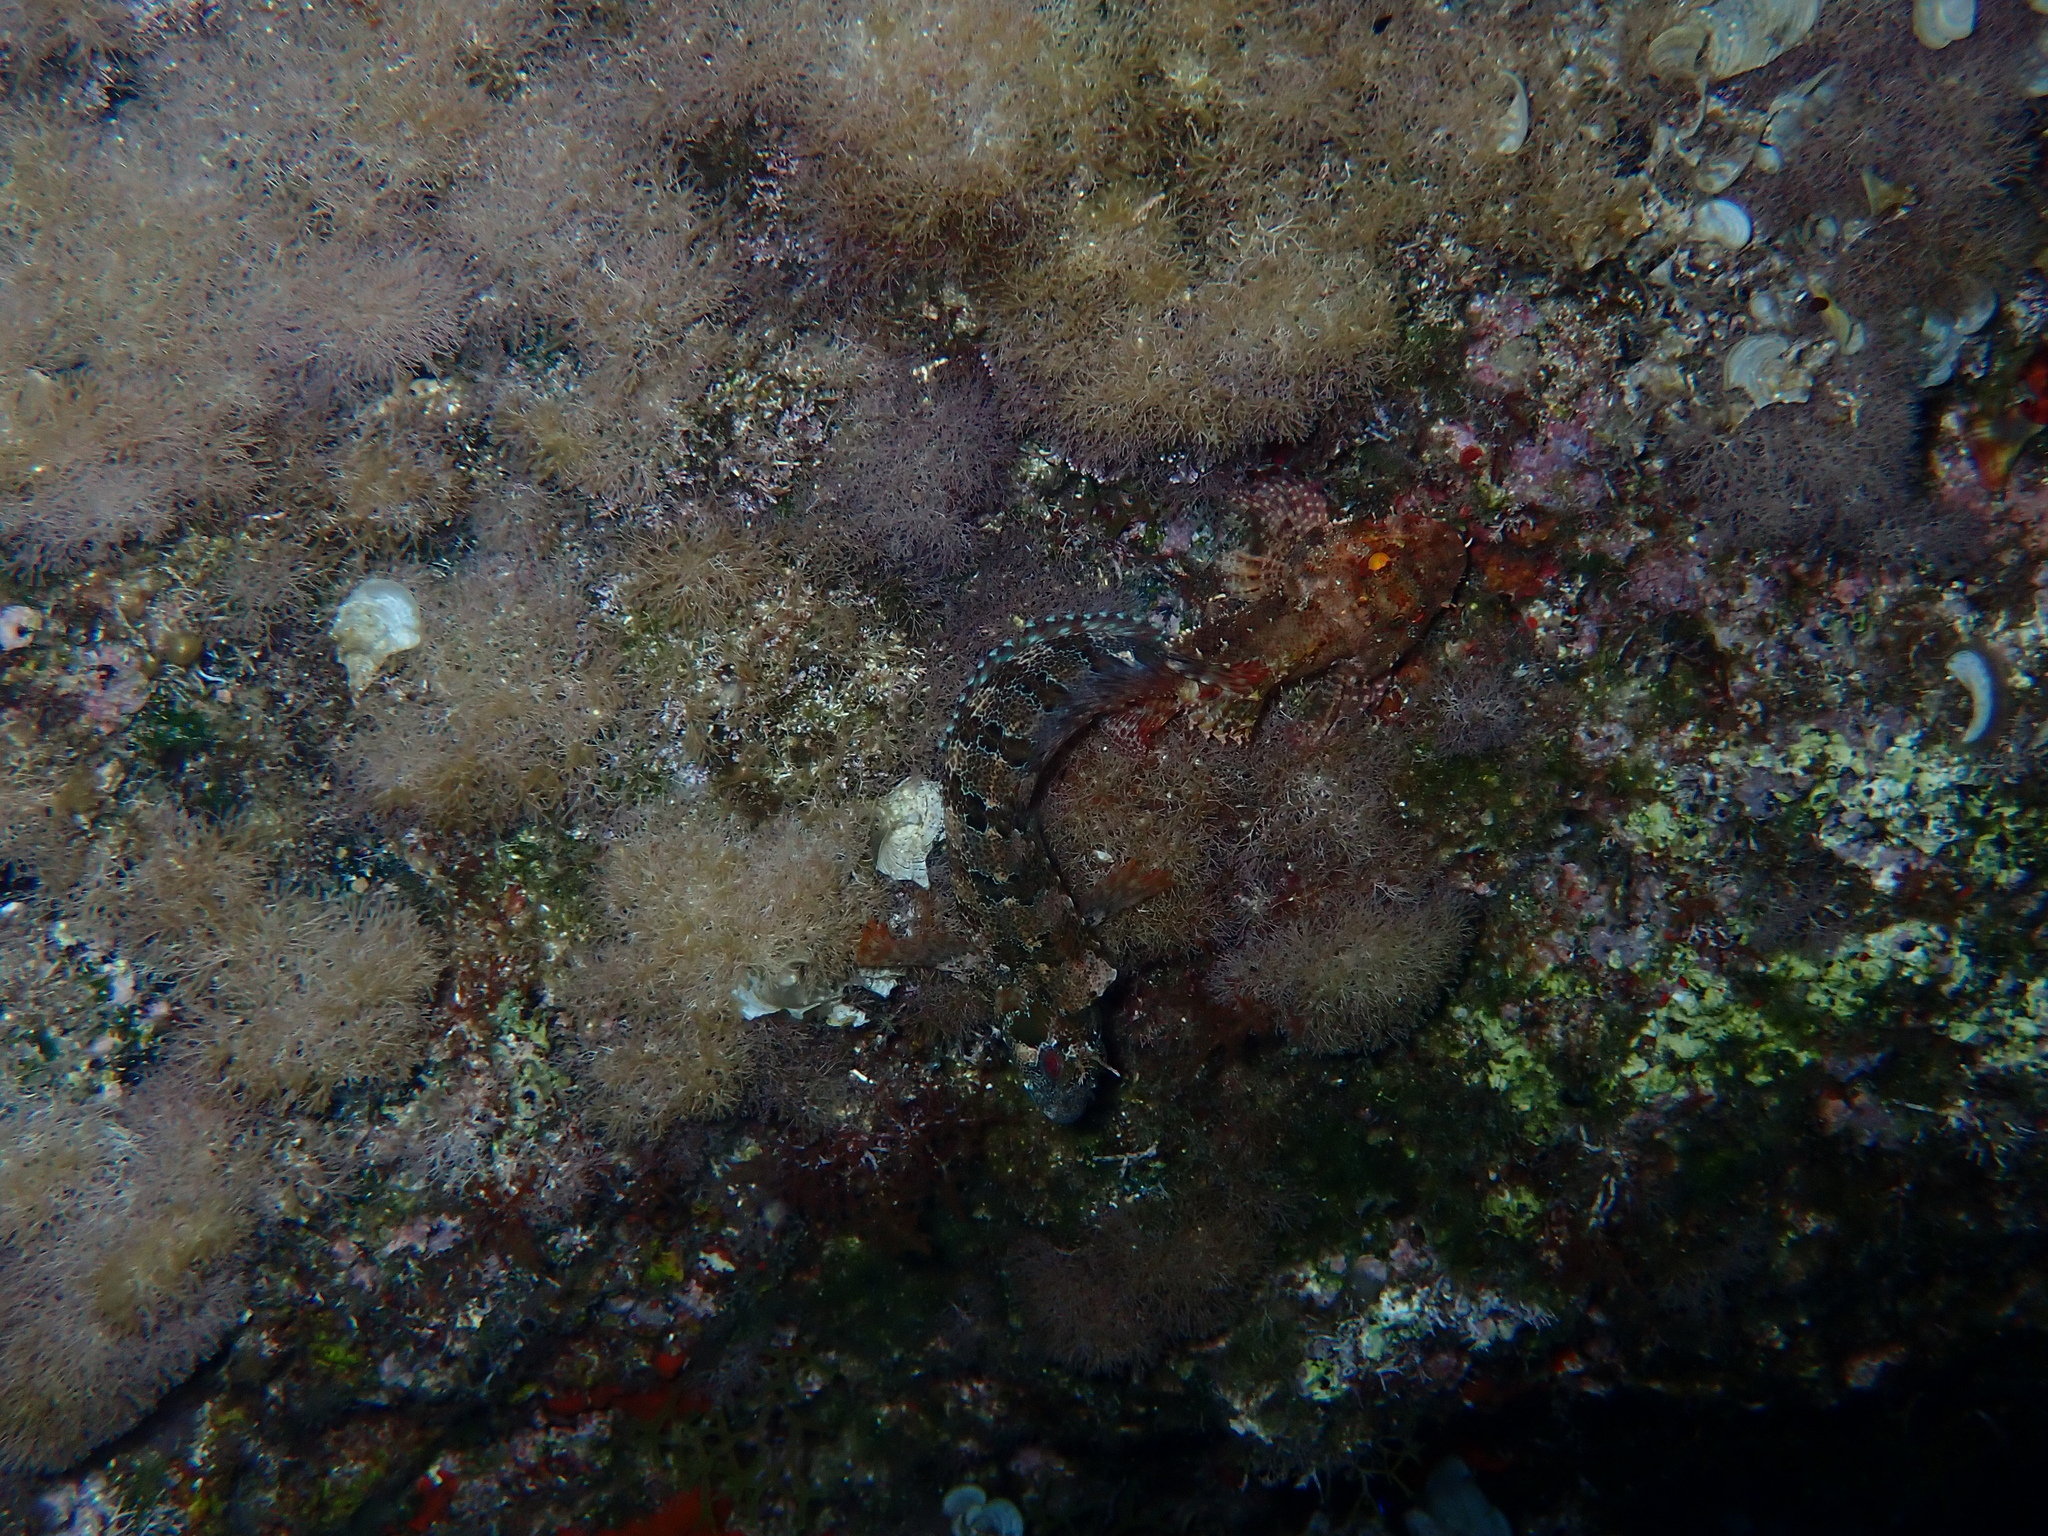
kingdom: Animalia
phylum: Chordata
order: Scorpaeniformes
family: Scorpaenidae
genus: Scorpaena
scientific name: Scorpaena maderensis
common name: Madeira rockfish
